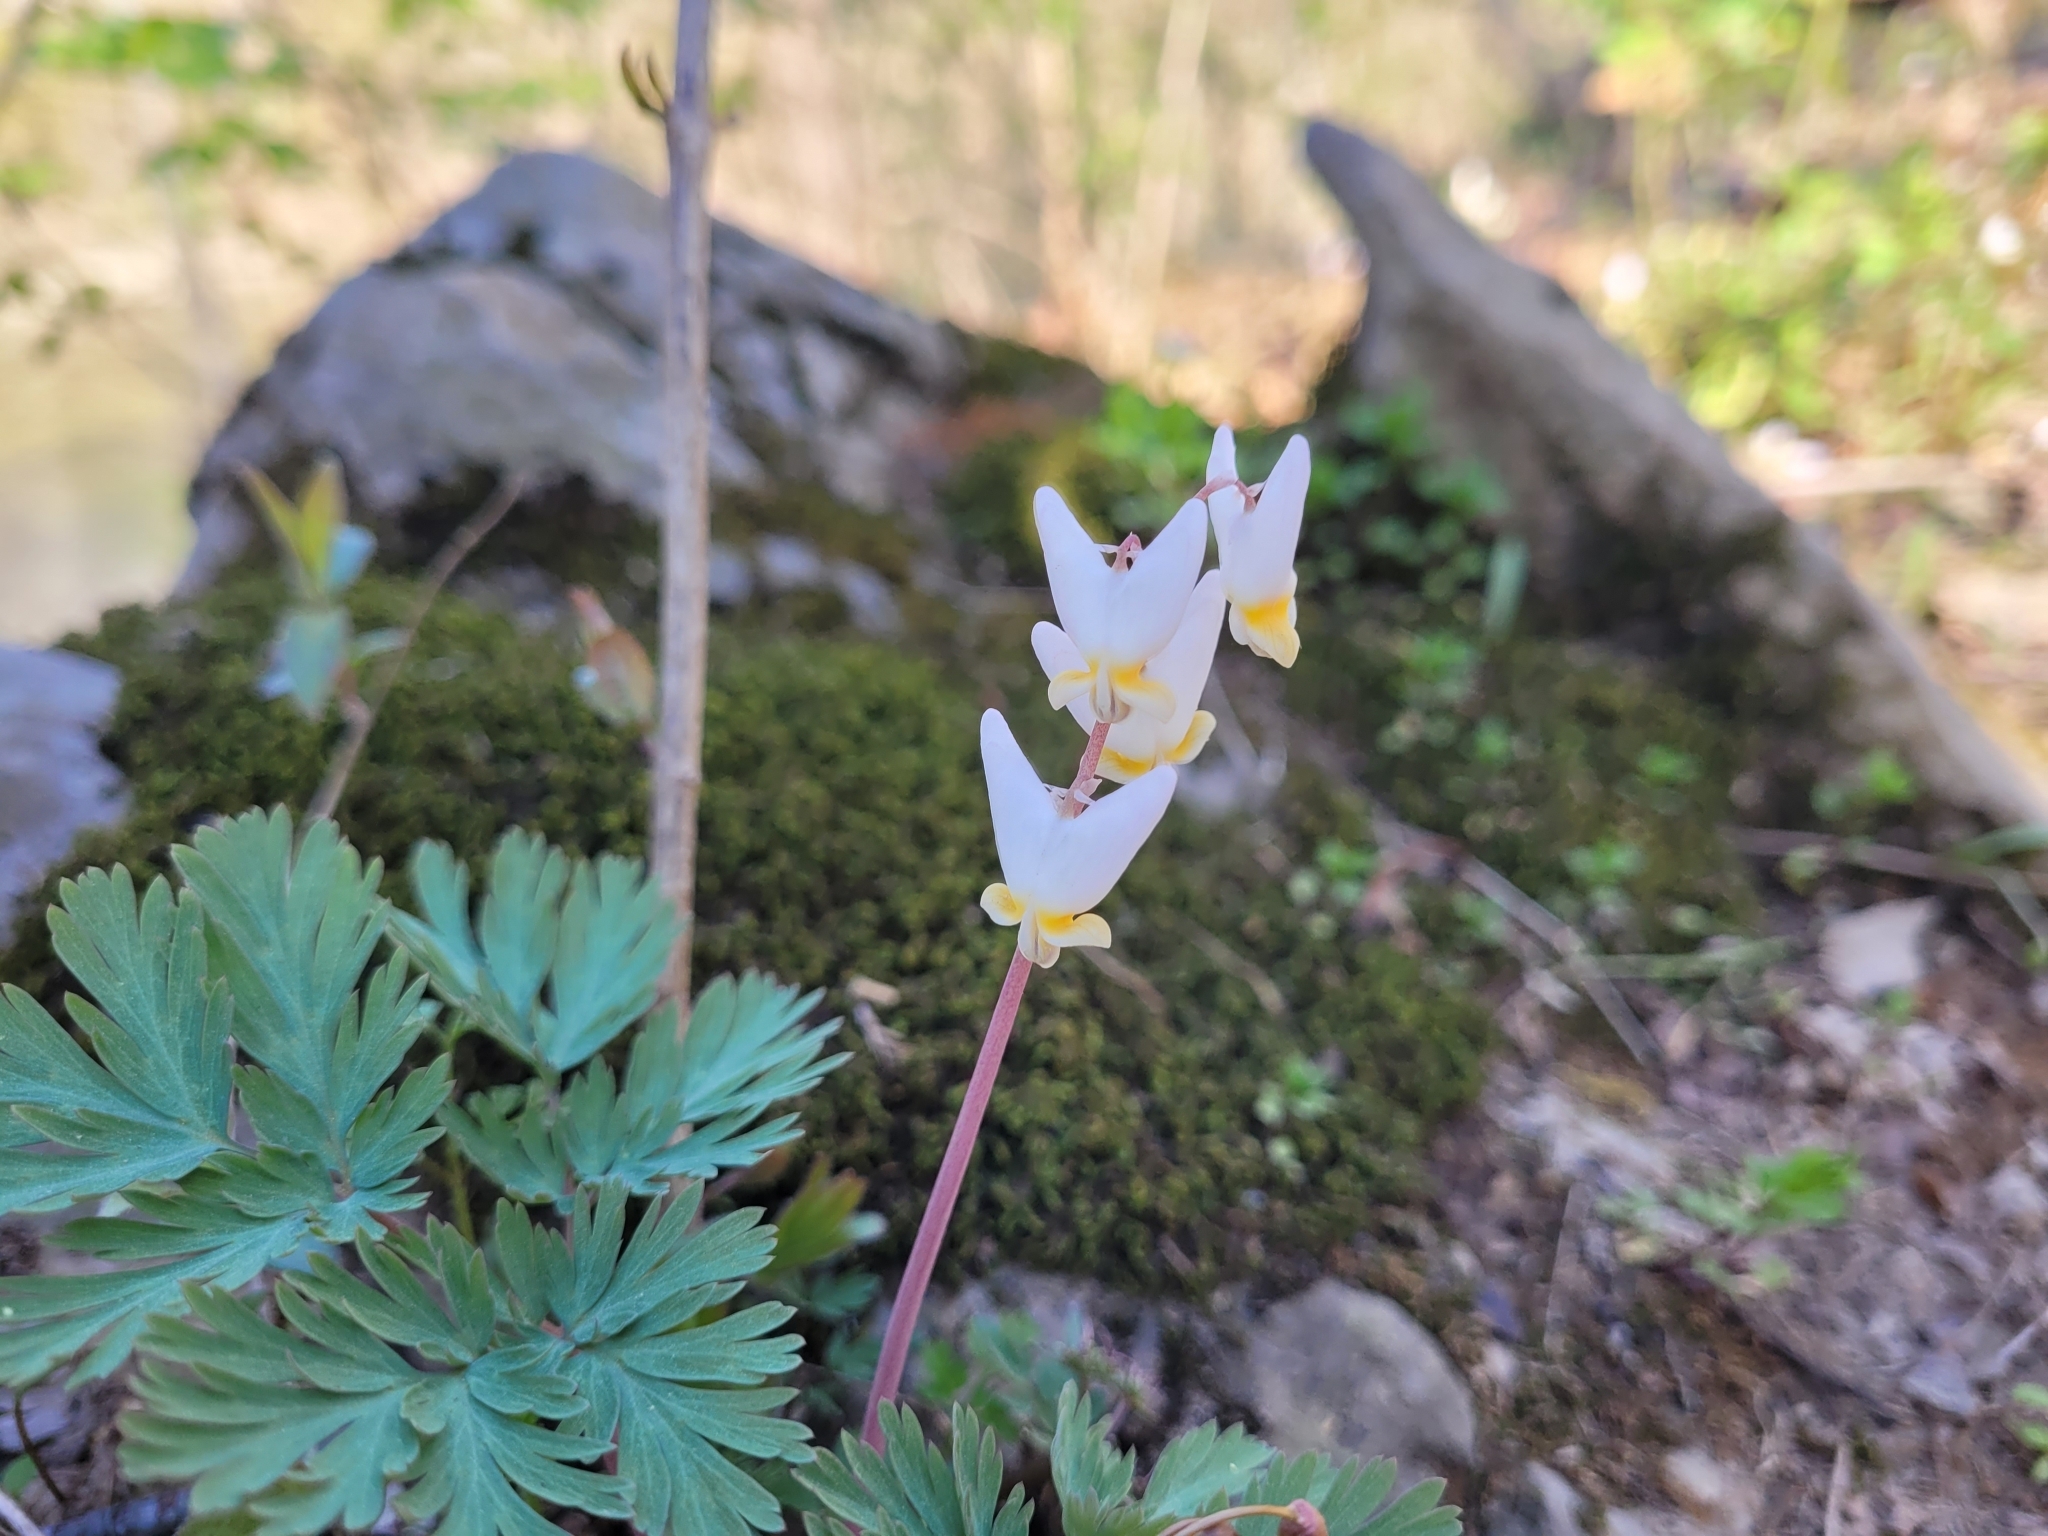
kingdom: Plantae
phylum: Tracheophyta
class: Magnoliopsida
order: Ranunculales
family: Papaveraceae
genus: Dicentra
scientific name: Dicentra cucullaria
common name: Dutchman's breeches
